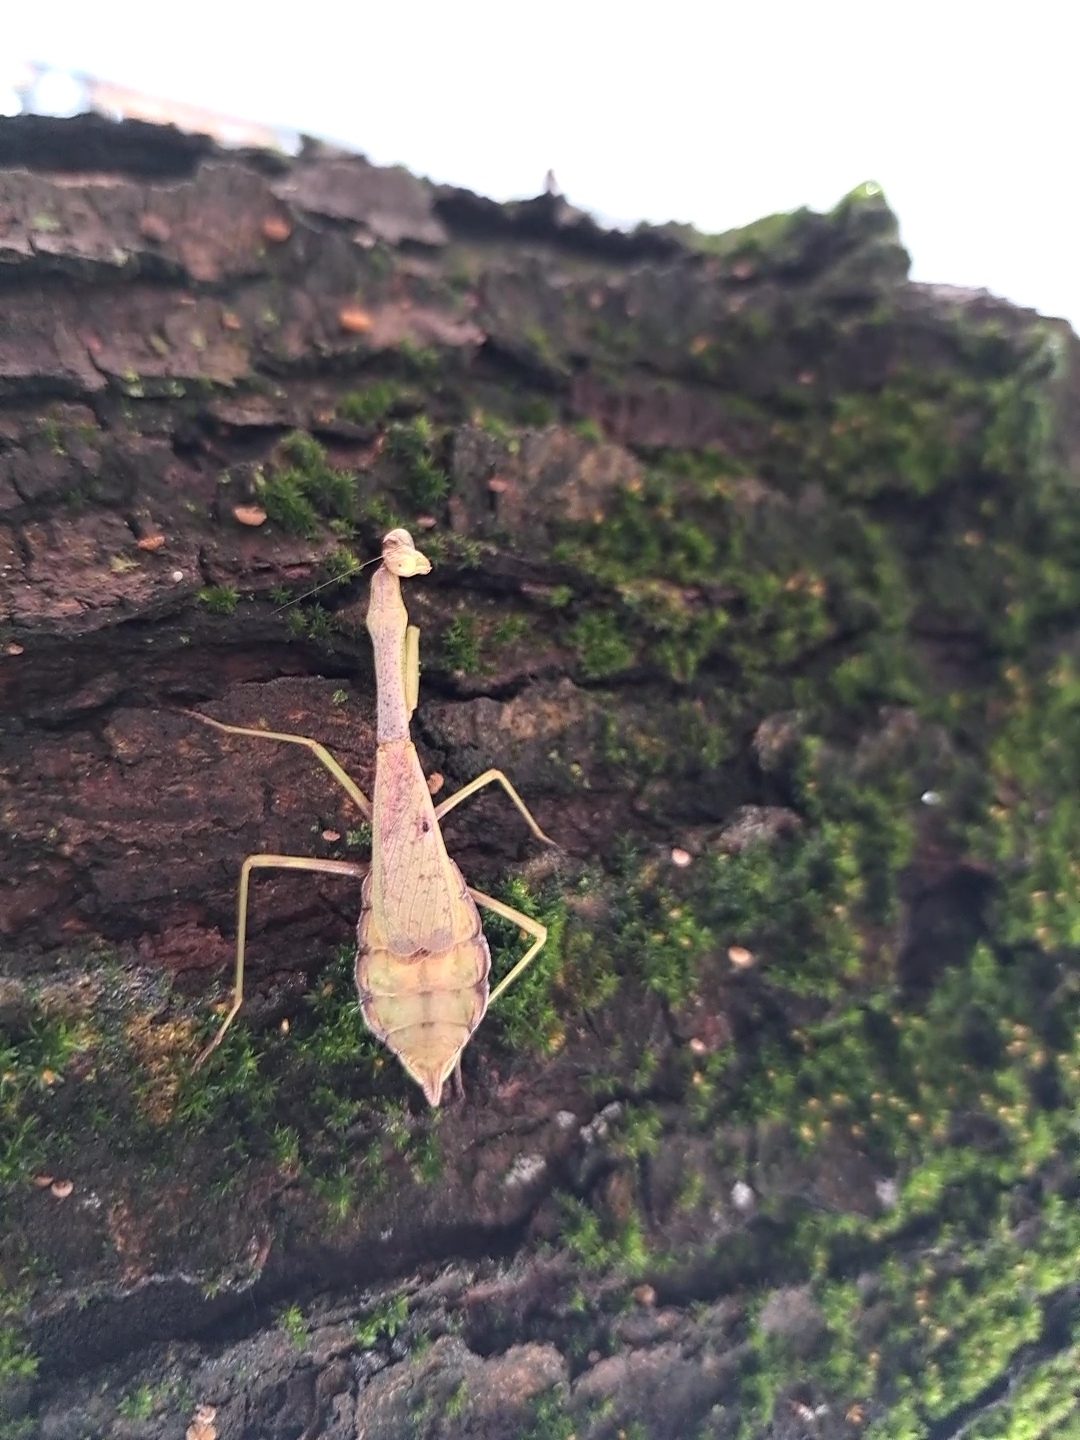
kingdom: Animalia
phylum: Arthropoda
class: Insecta
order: Mantodea
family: Mantidae
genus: Stagmomantis
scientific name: Stagmomantis carolina
